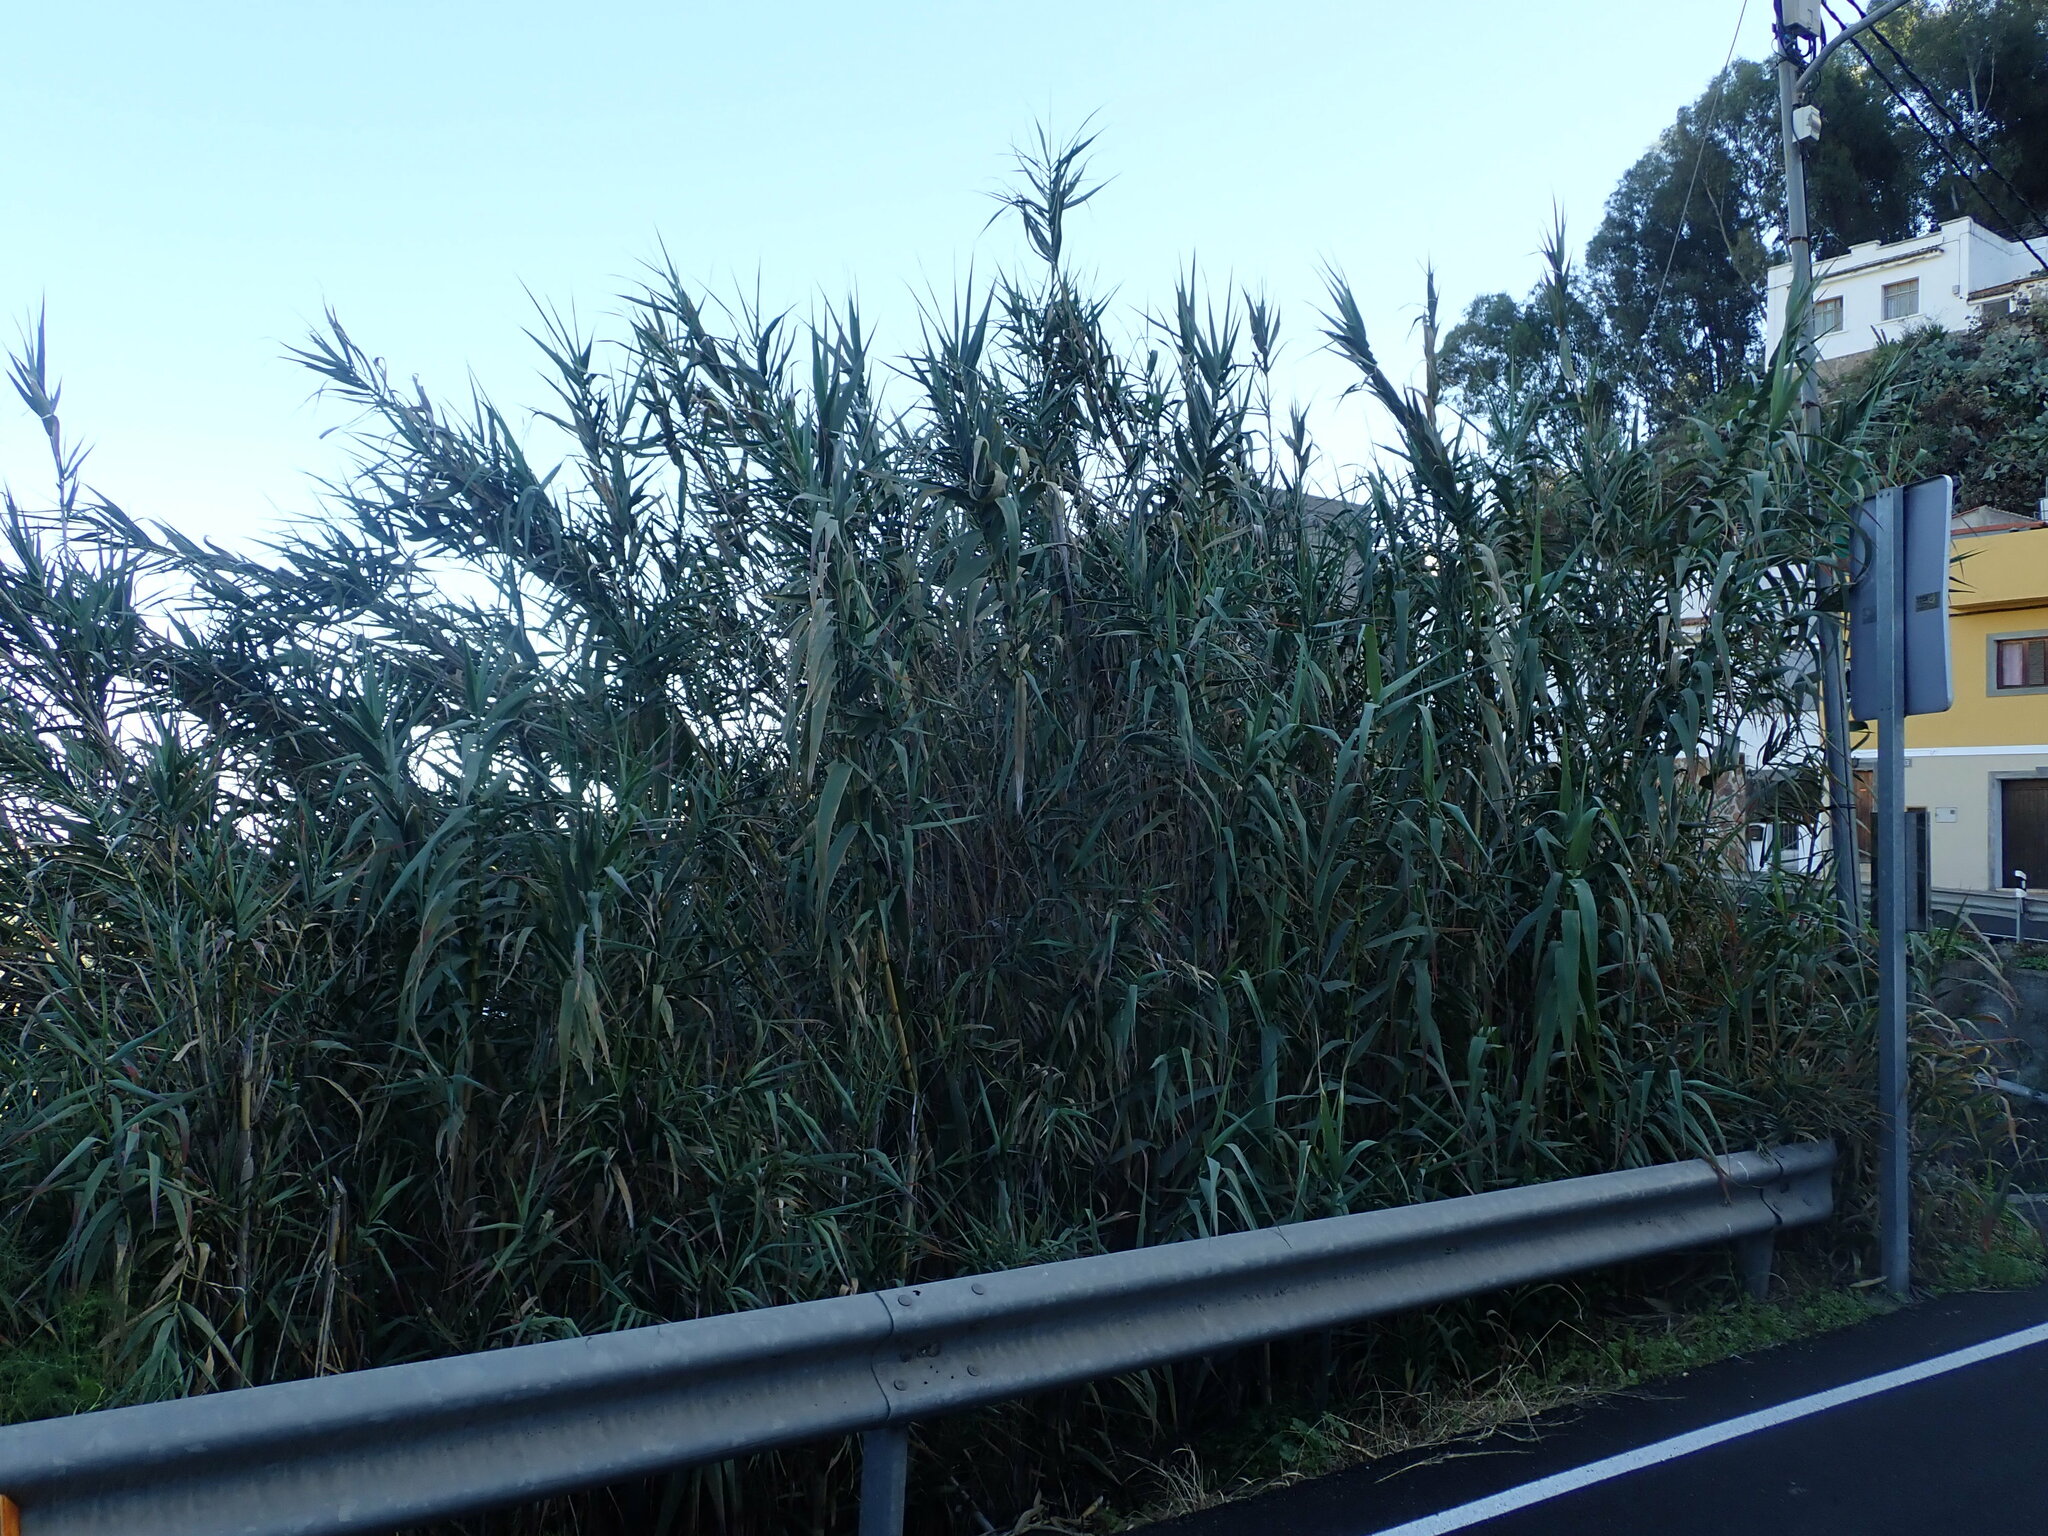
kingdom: Plantae
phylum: Tracheophyta
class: Liliopsida
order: Poales
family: Poaceae
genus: Arundo
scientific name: Arundo donax
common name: Giant reed
